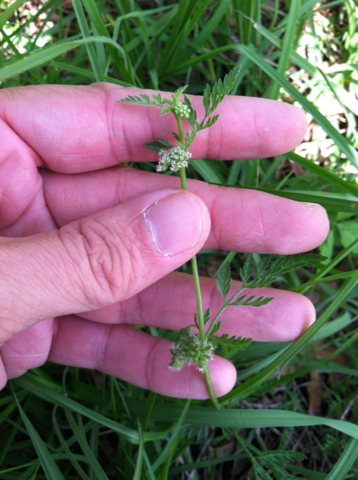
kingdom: Plantae
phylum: Tracheophyta
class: Magnoliopsida
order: Apiales
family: Apiaceae
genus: Torilis
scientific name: Torilis nodosa
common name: Knotted hedge-parsley
